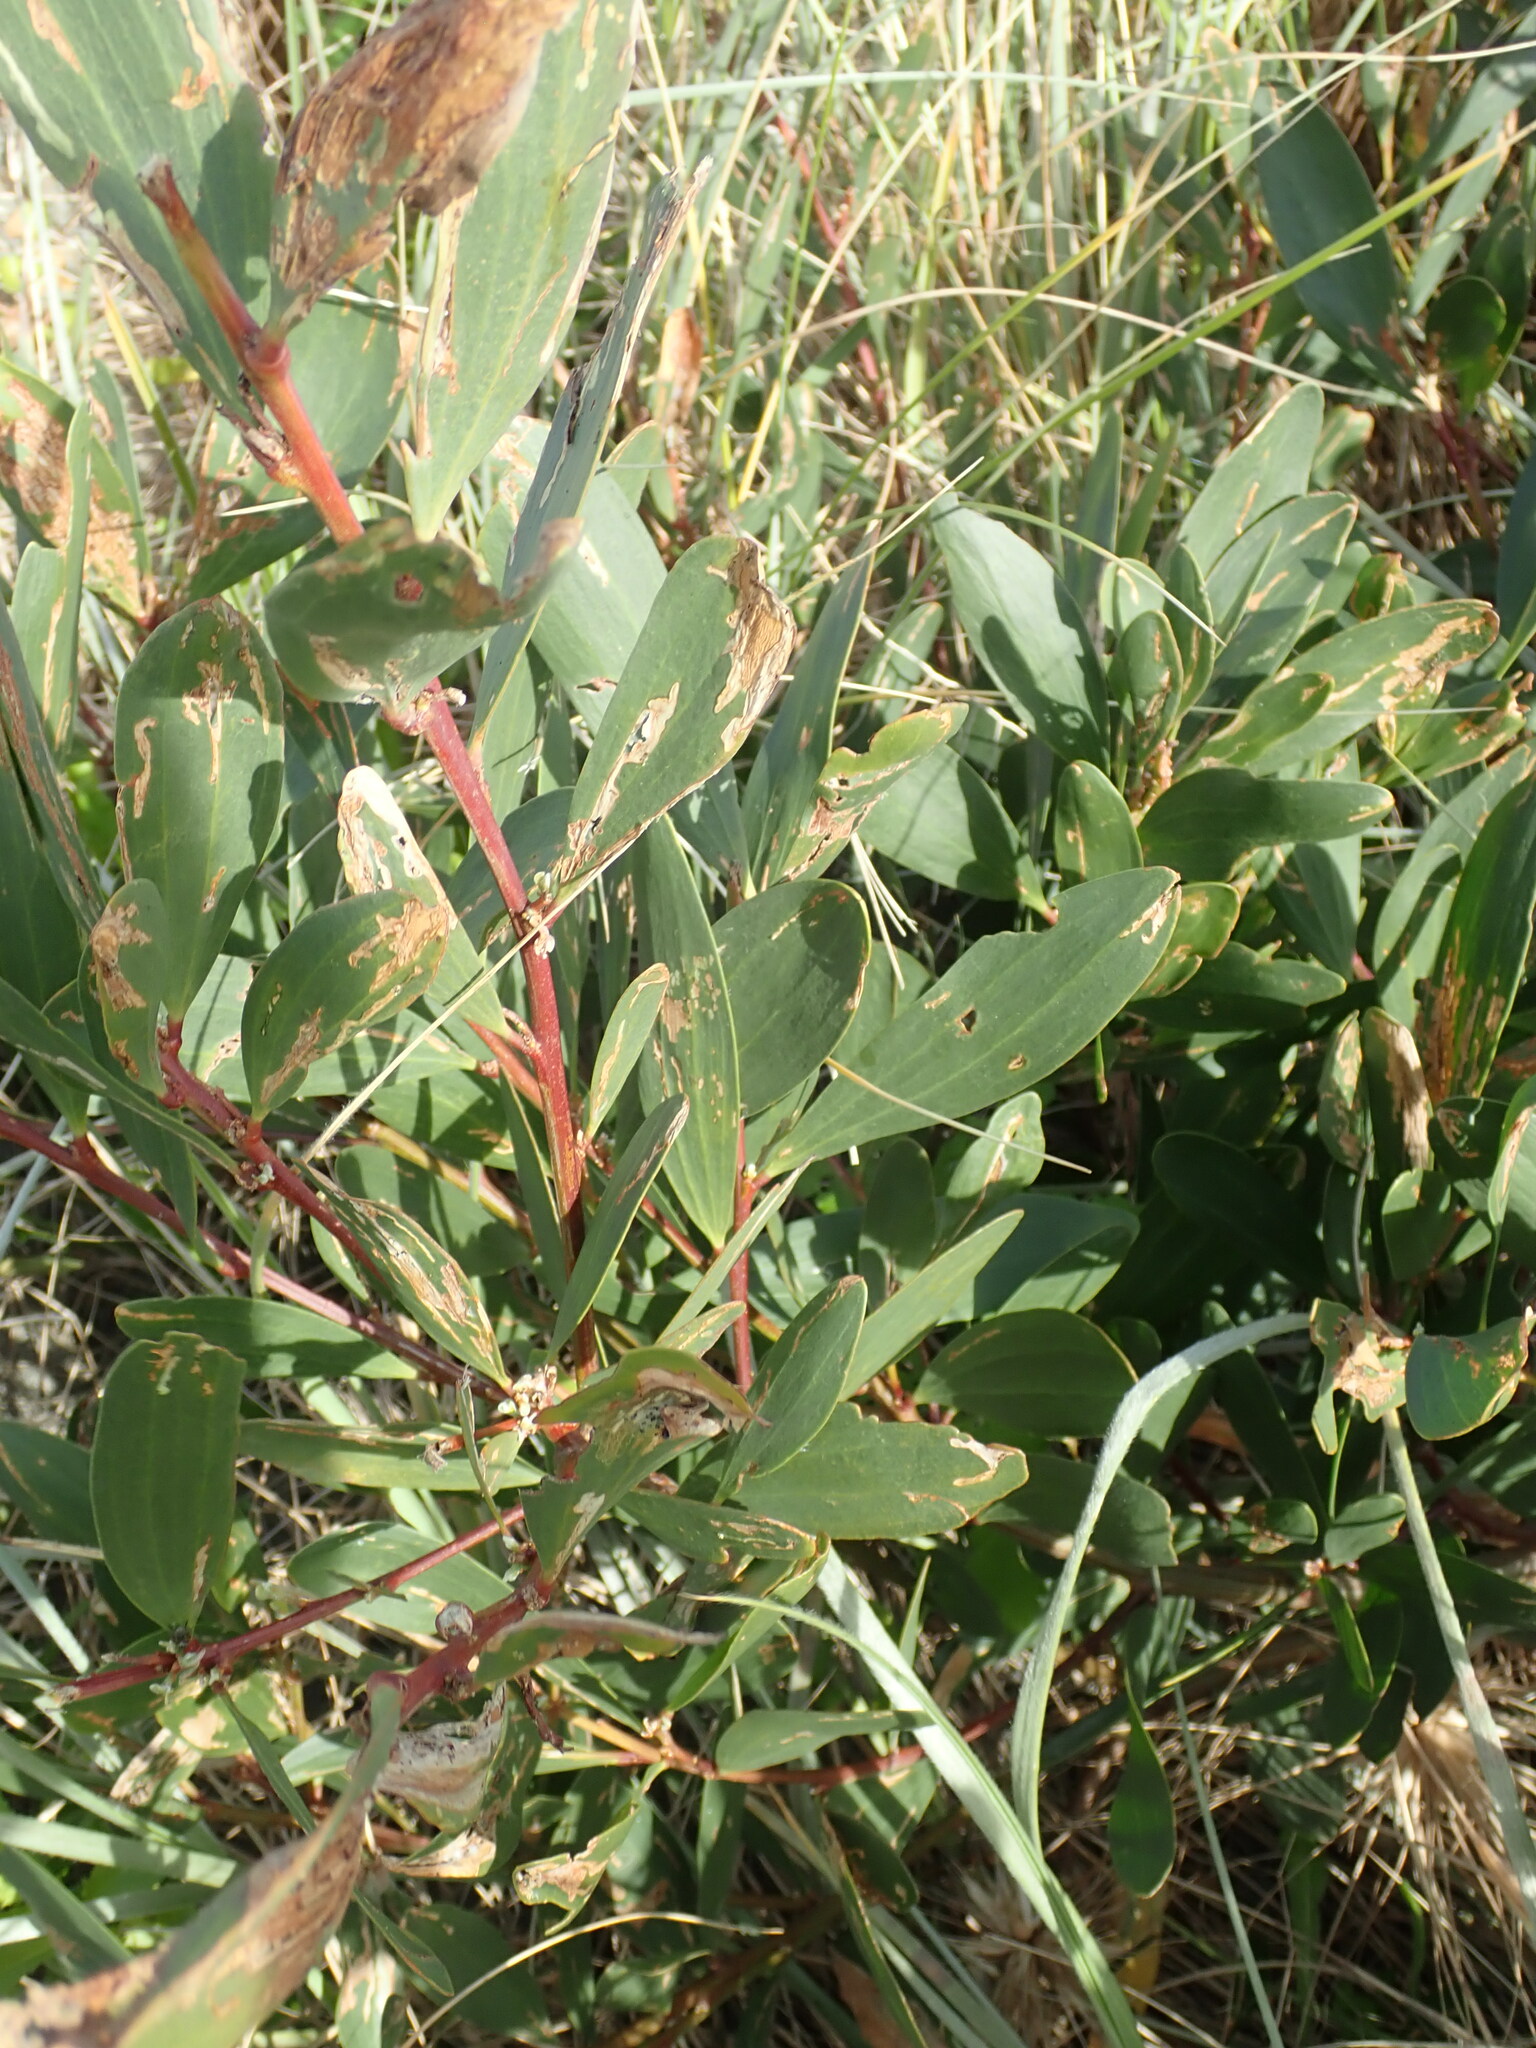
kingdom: Plantae
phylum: Tracheophyta
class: Magnoliopsida
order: Fabales
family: Fabaceae
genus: Acacia
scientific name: Acacia longifolia
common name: Sydney golden wattle
